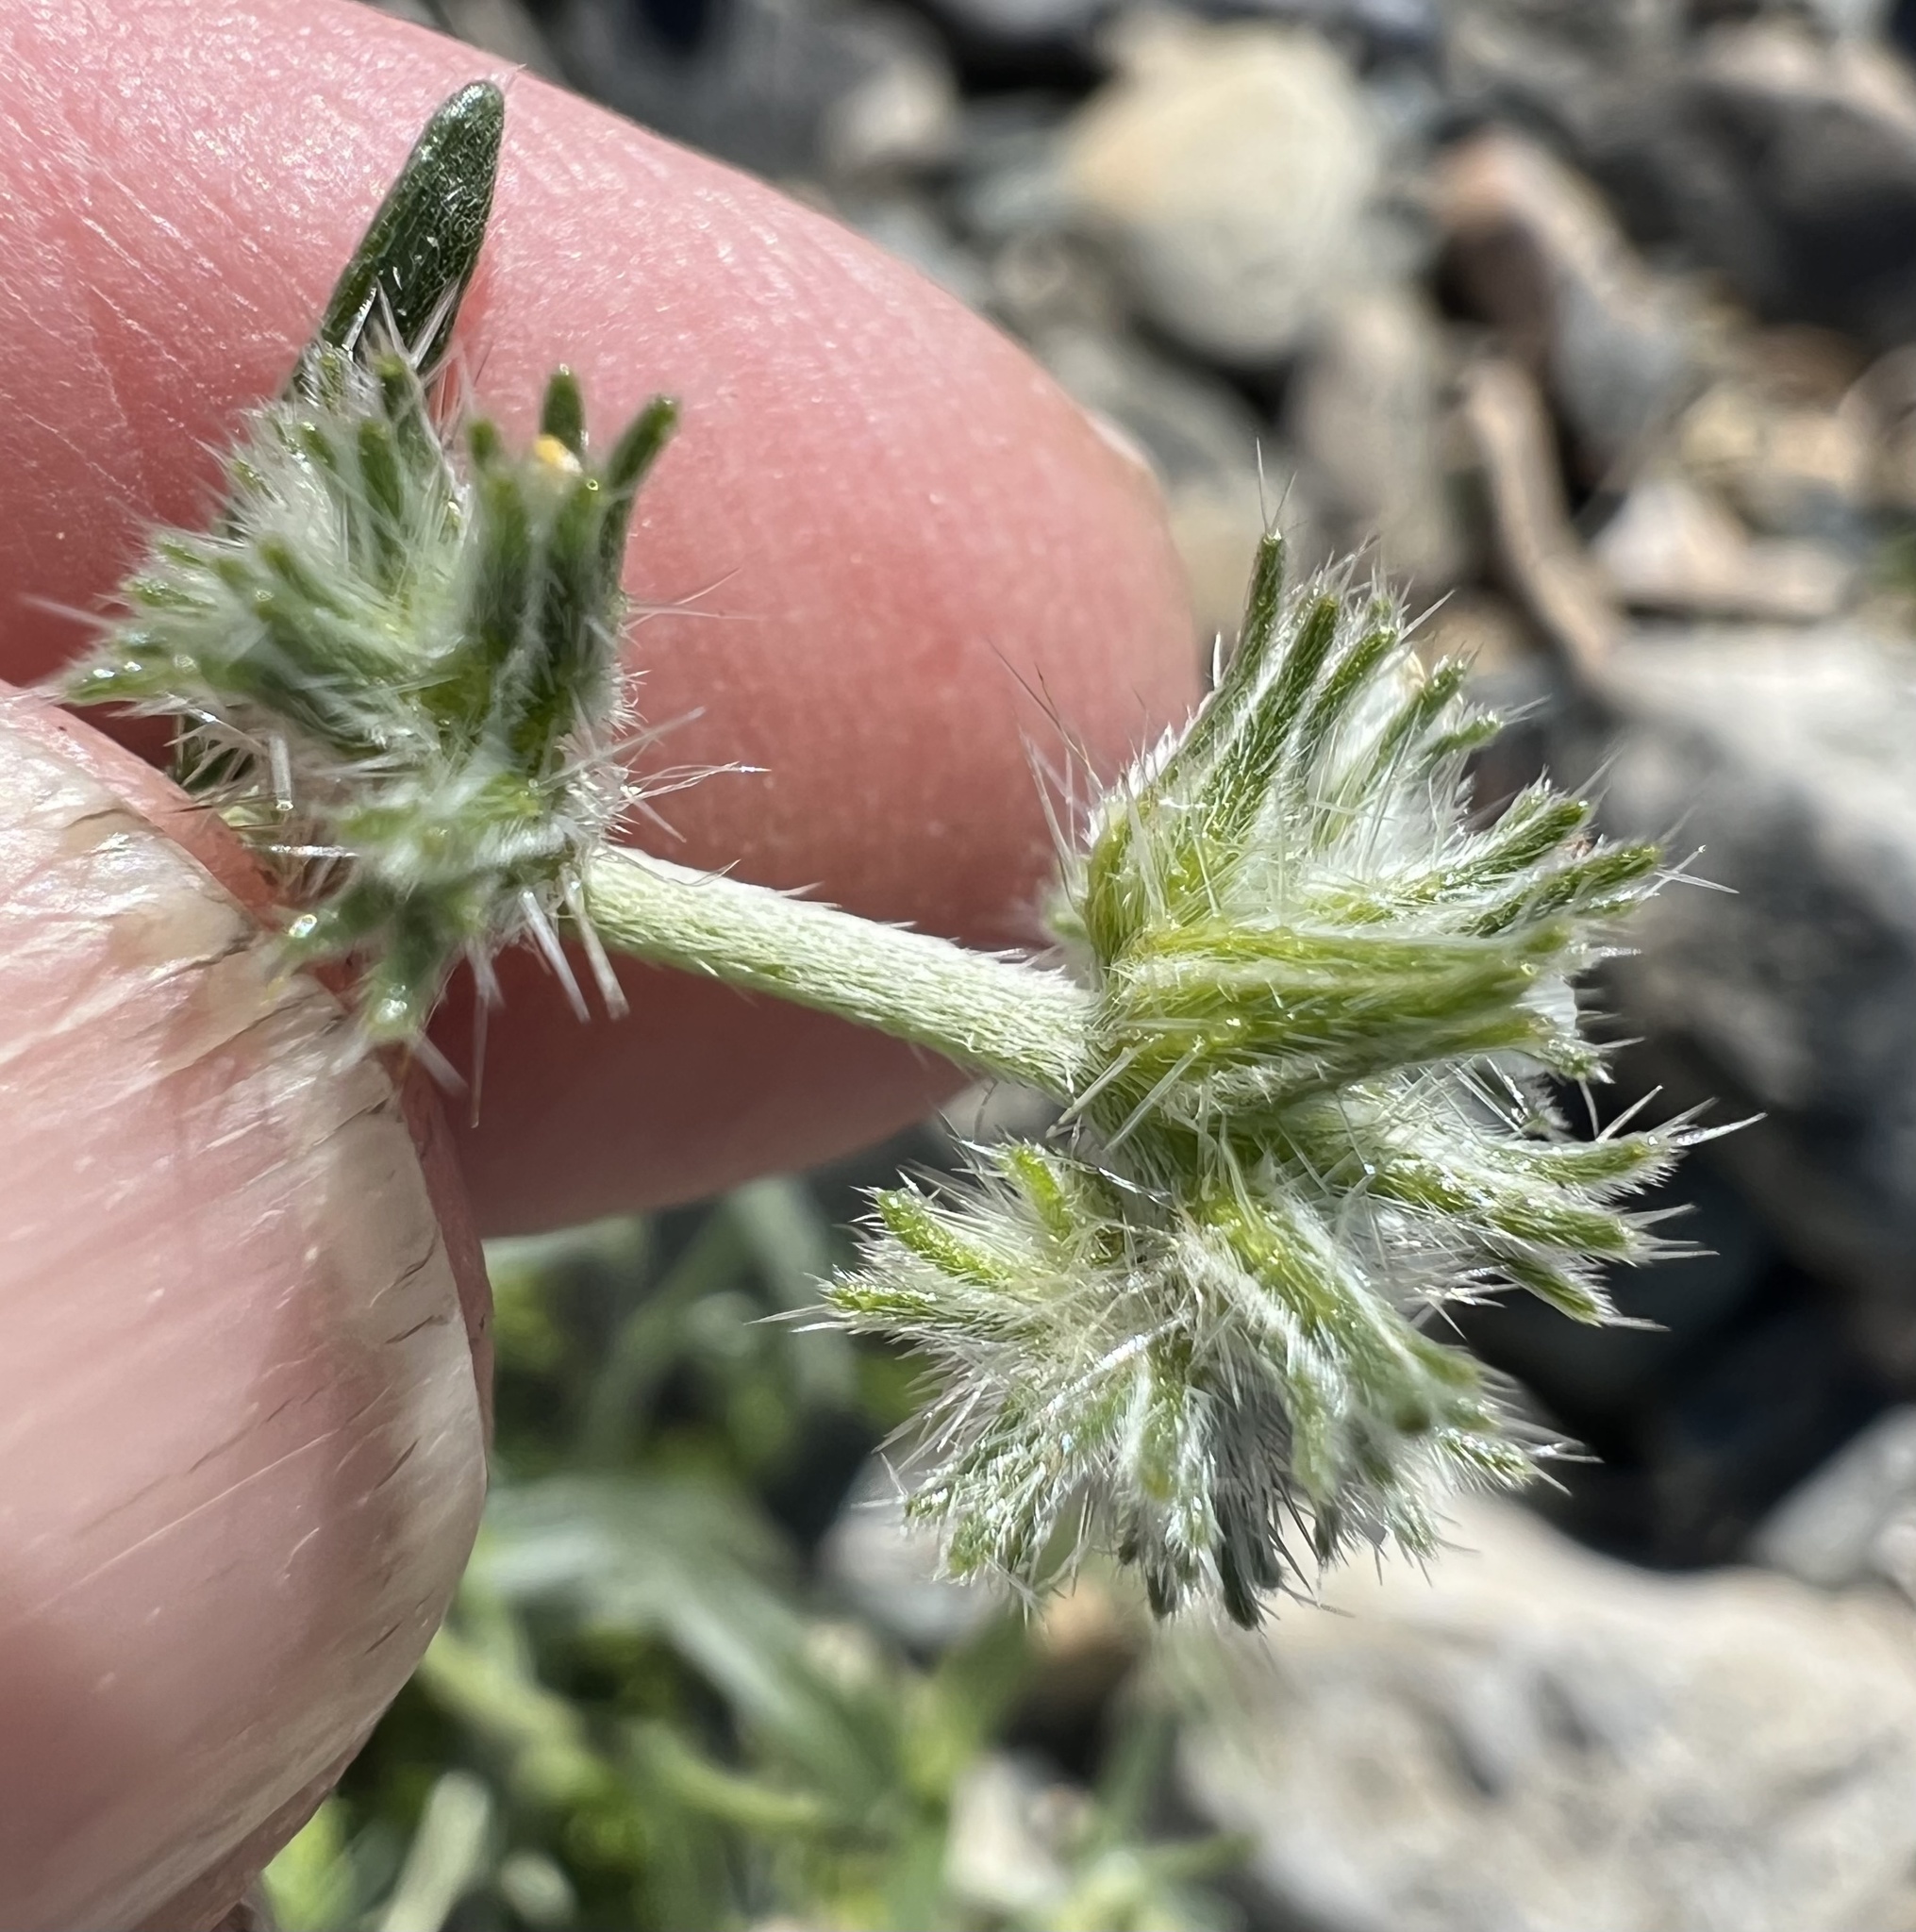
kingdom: Plantae
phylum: Tracheophyta
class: Magnoliopsida
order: Boraginales
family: Boraginaceae
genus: Cryptantha
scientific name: Cryptantha nevadensis
